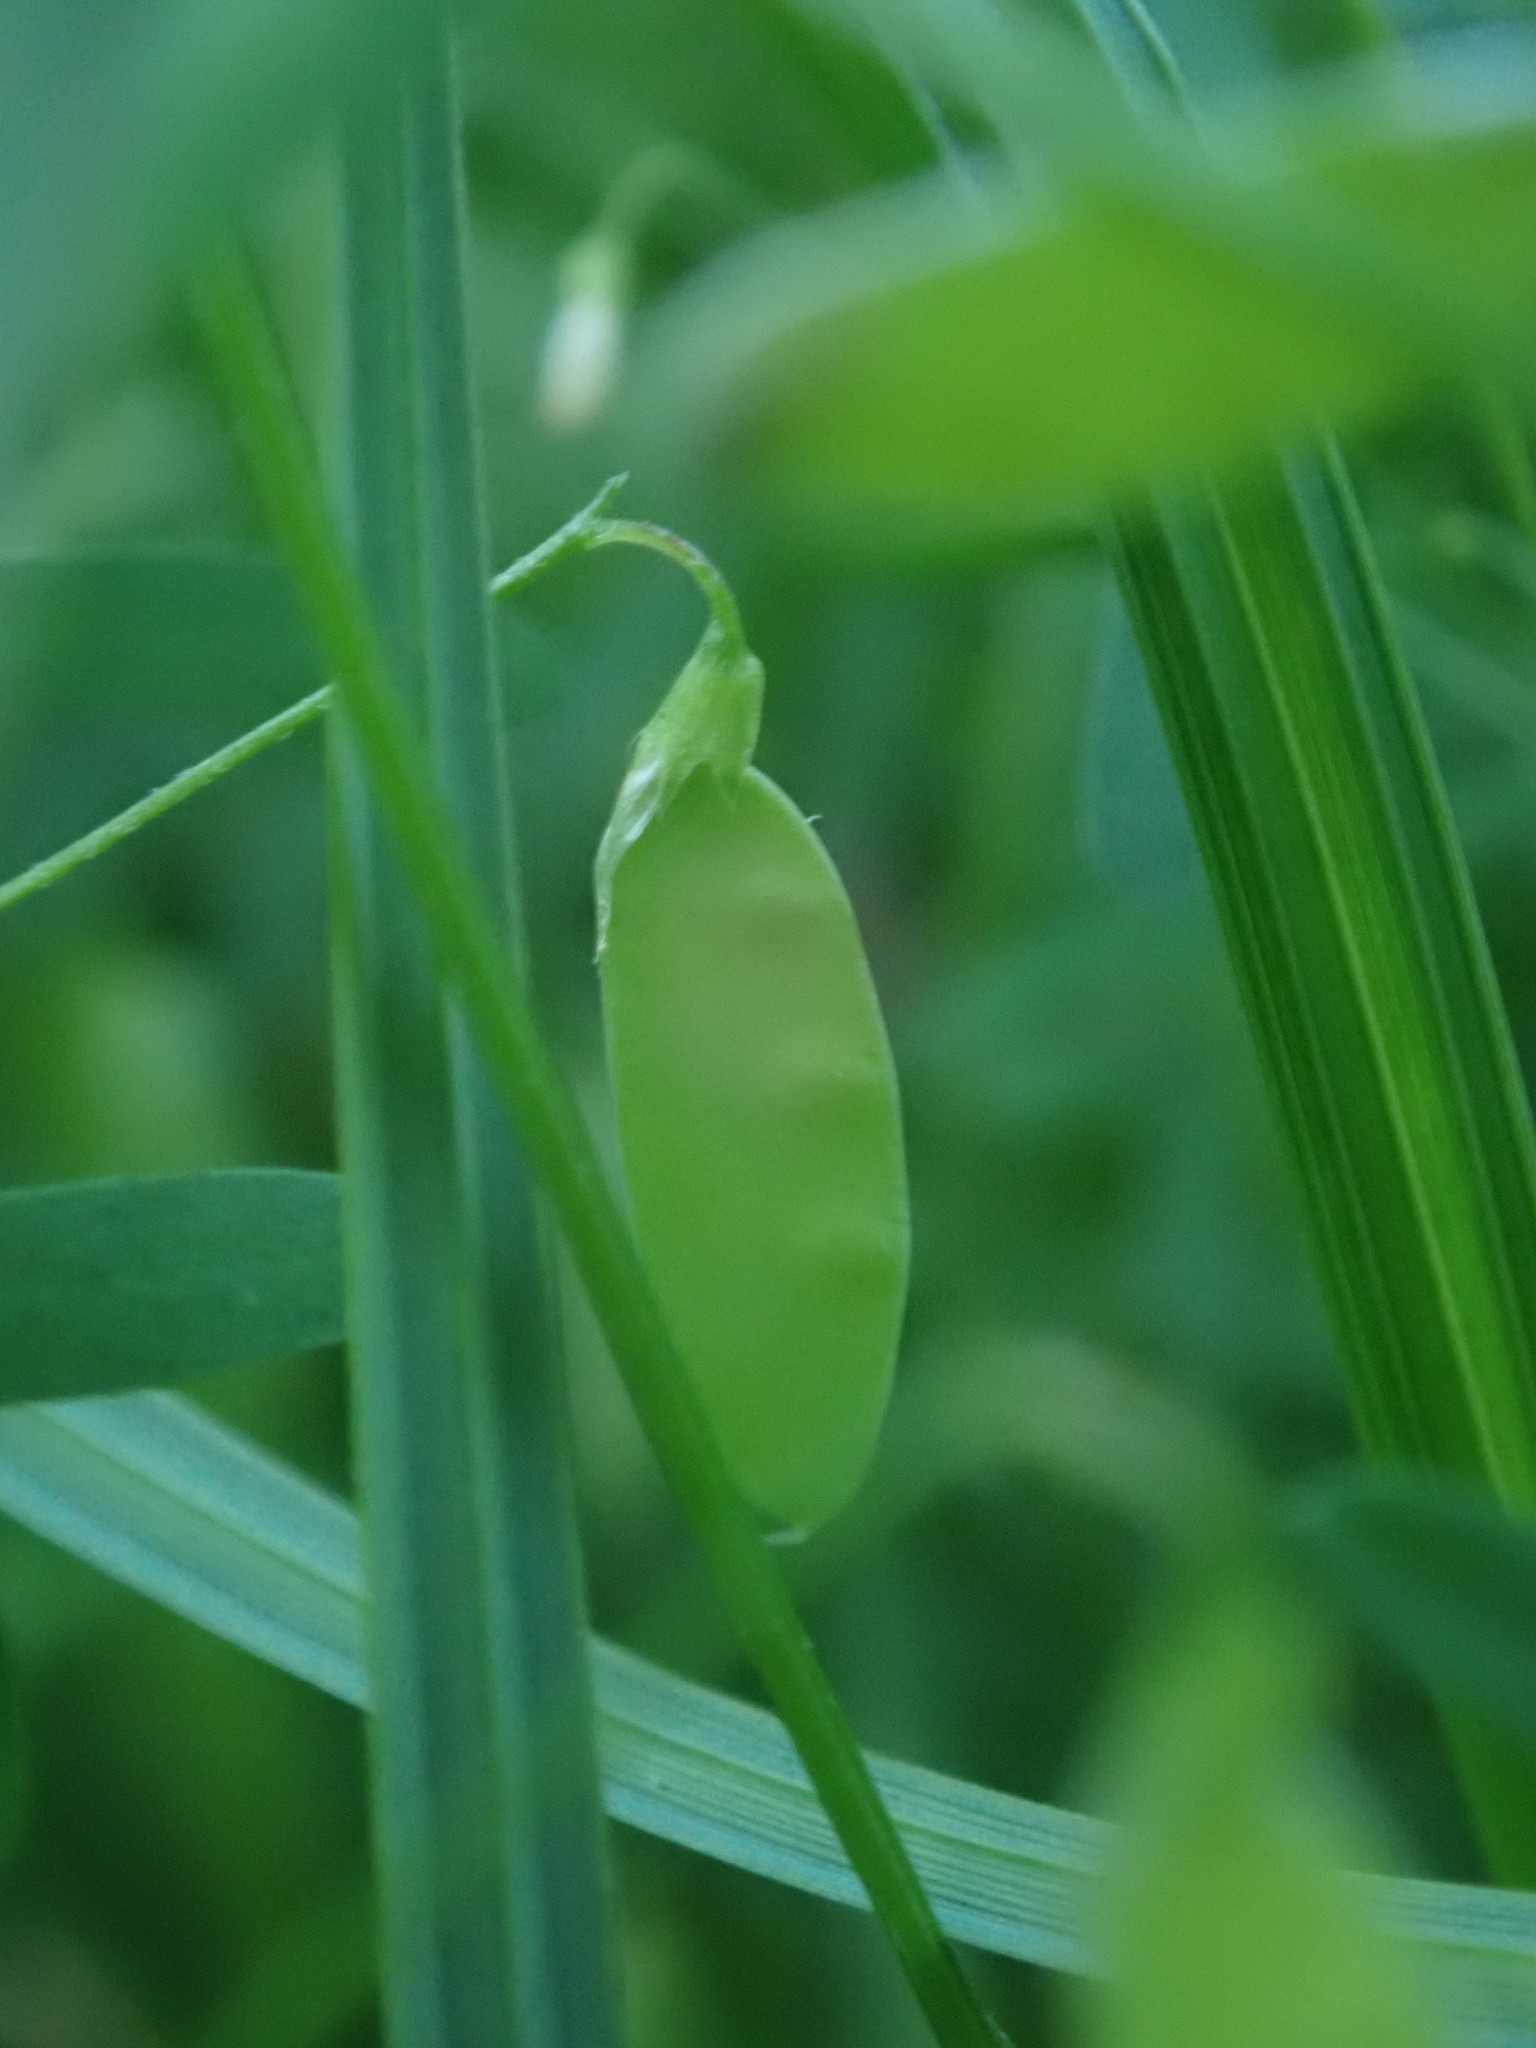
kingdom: Plantae
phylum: Tracheophyta
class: Magnoliopsida
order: Fabales
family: Fabaceae
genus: Vicia
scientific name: Vicia tetrasperma
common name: Smooth tare
